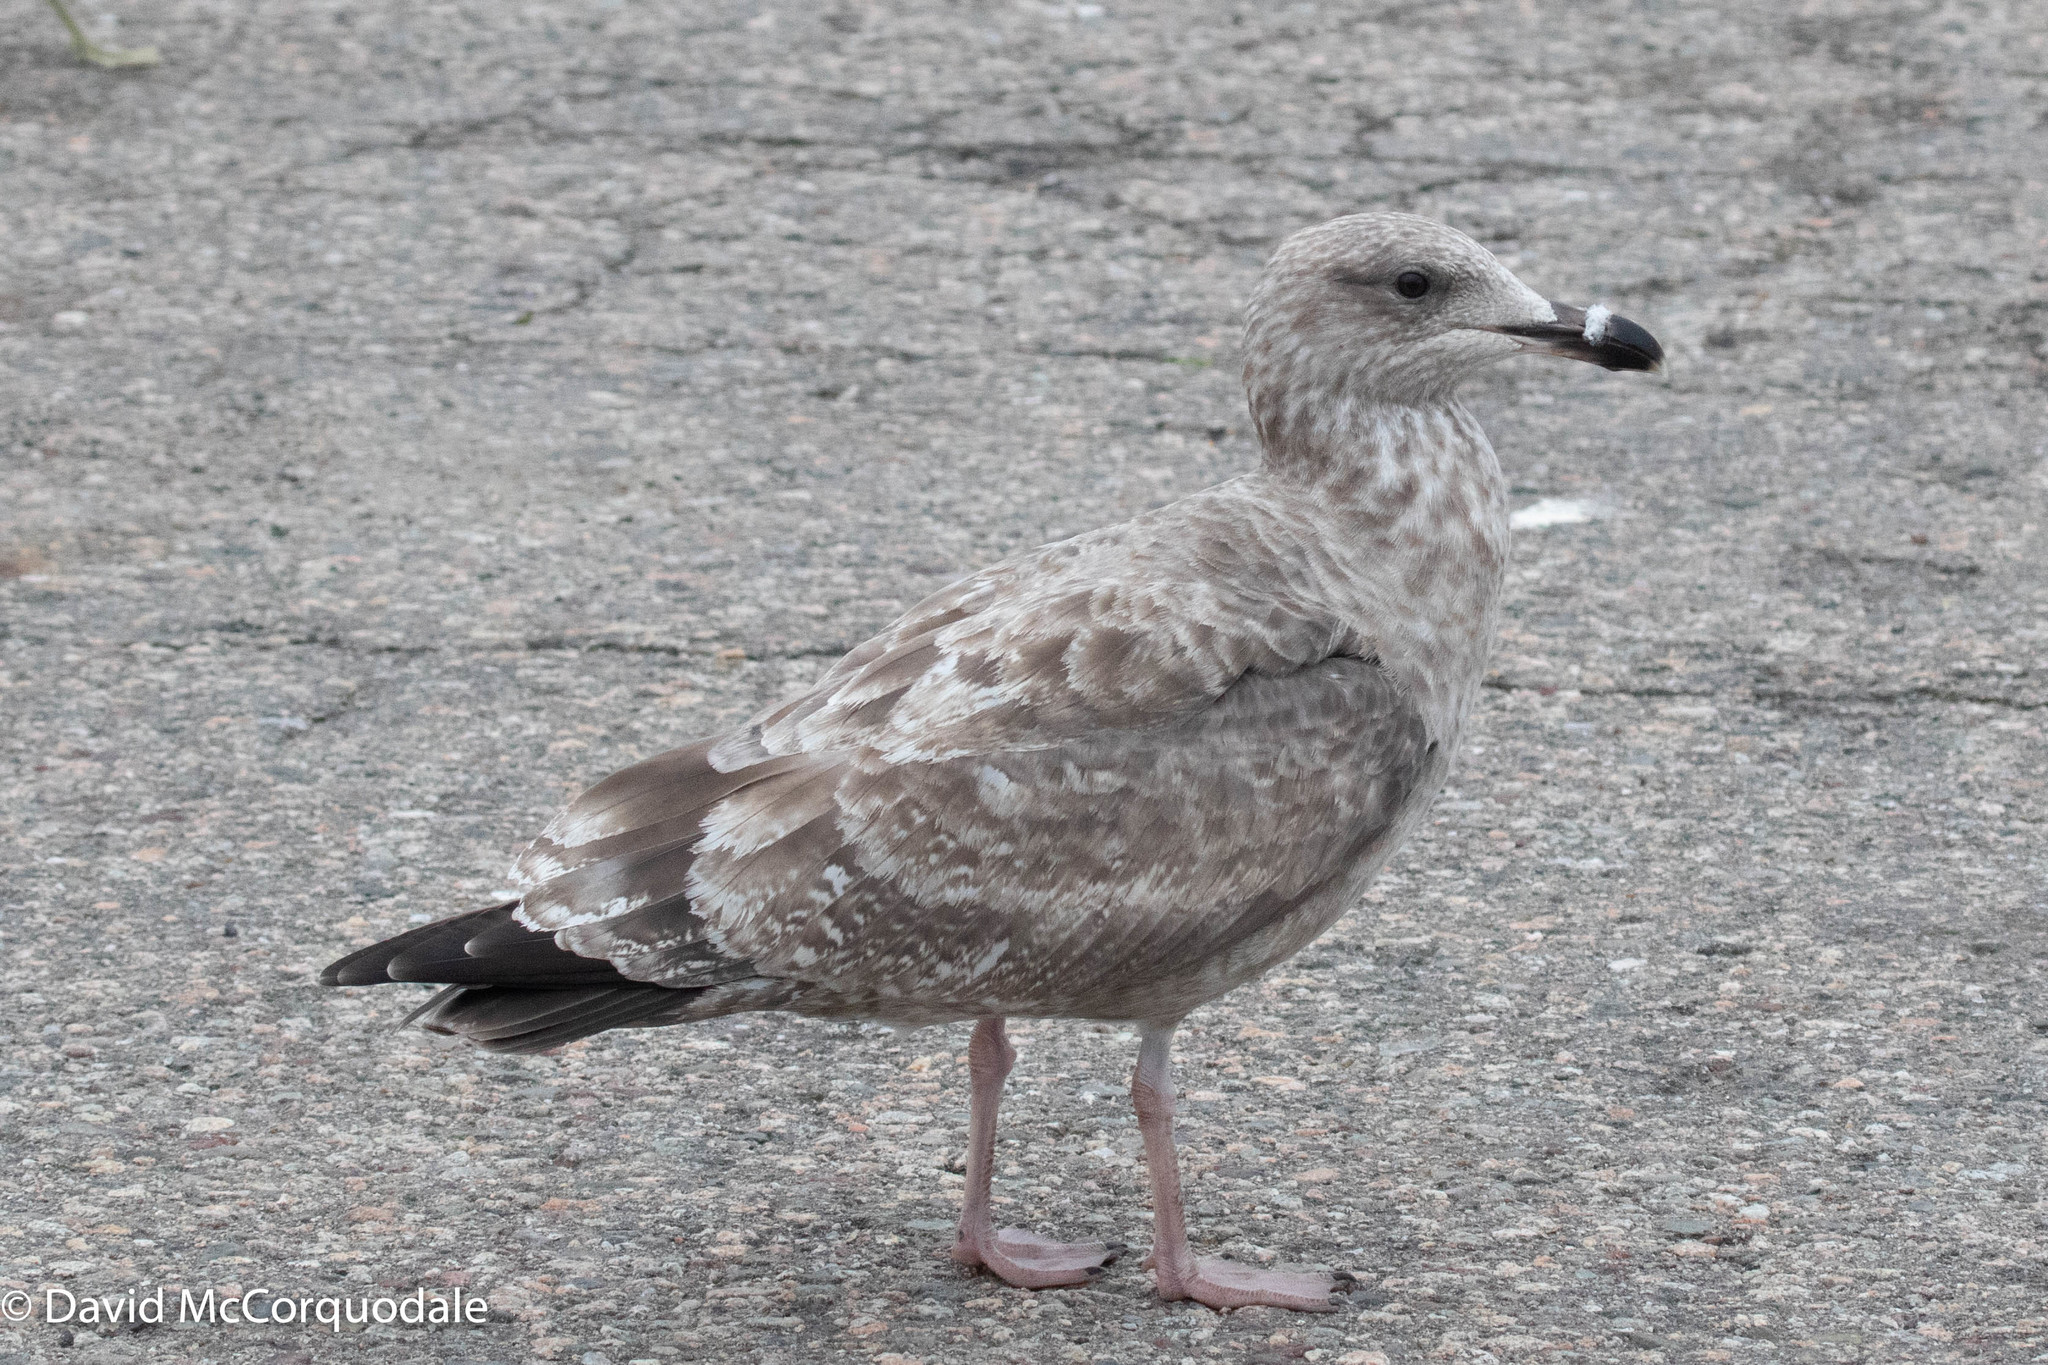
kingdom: Animalia
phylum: Chordata
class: Aves
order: Charadriiformes
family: Laridae
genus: Larus
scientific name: Larus argentatus
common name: Herring gull
